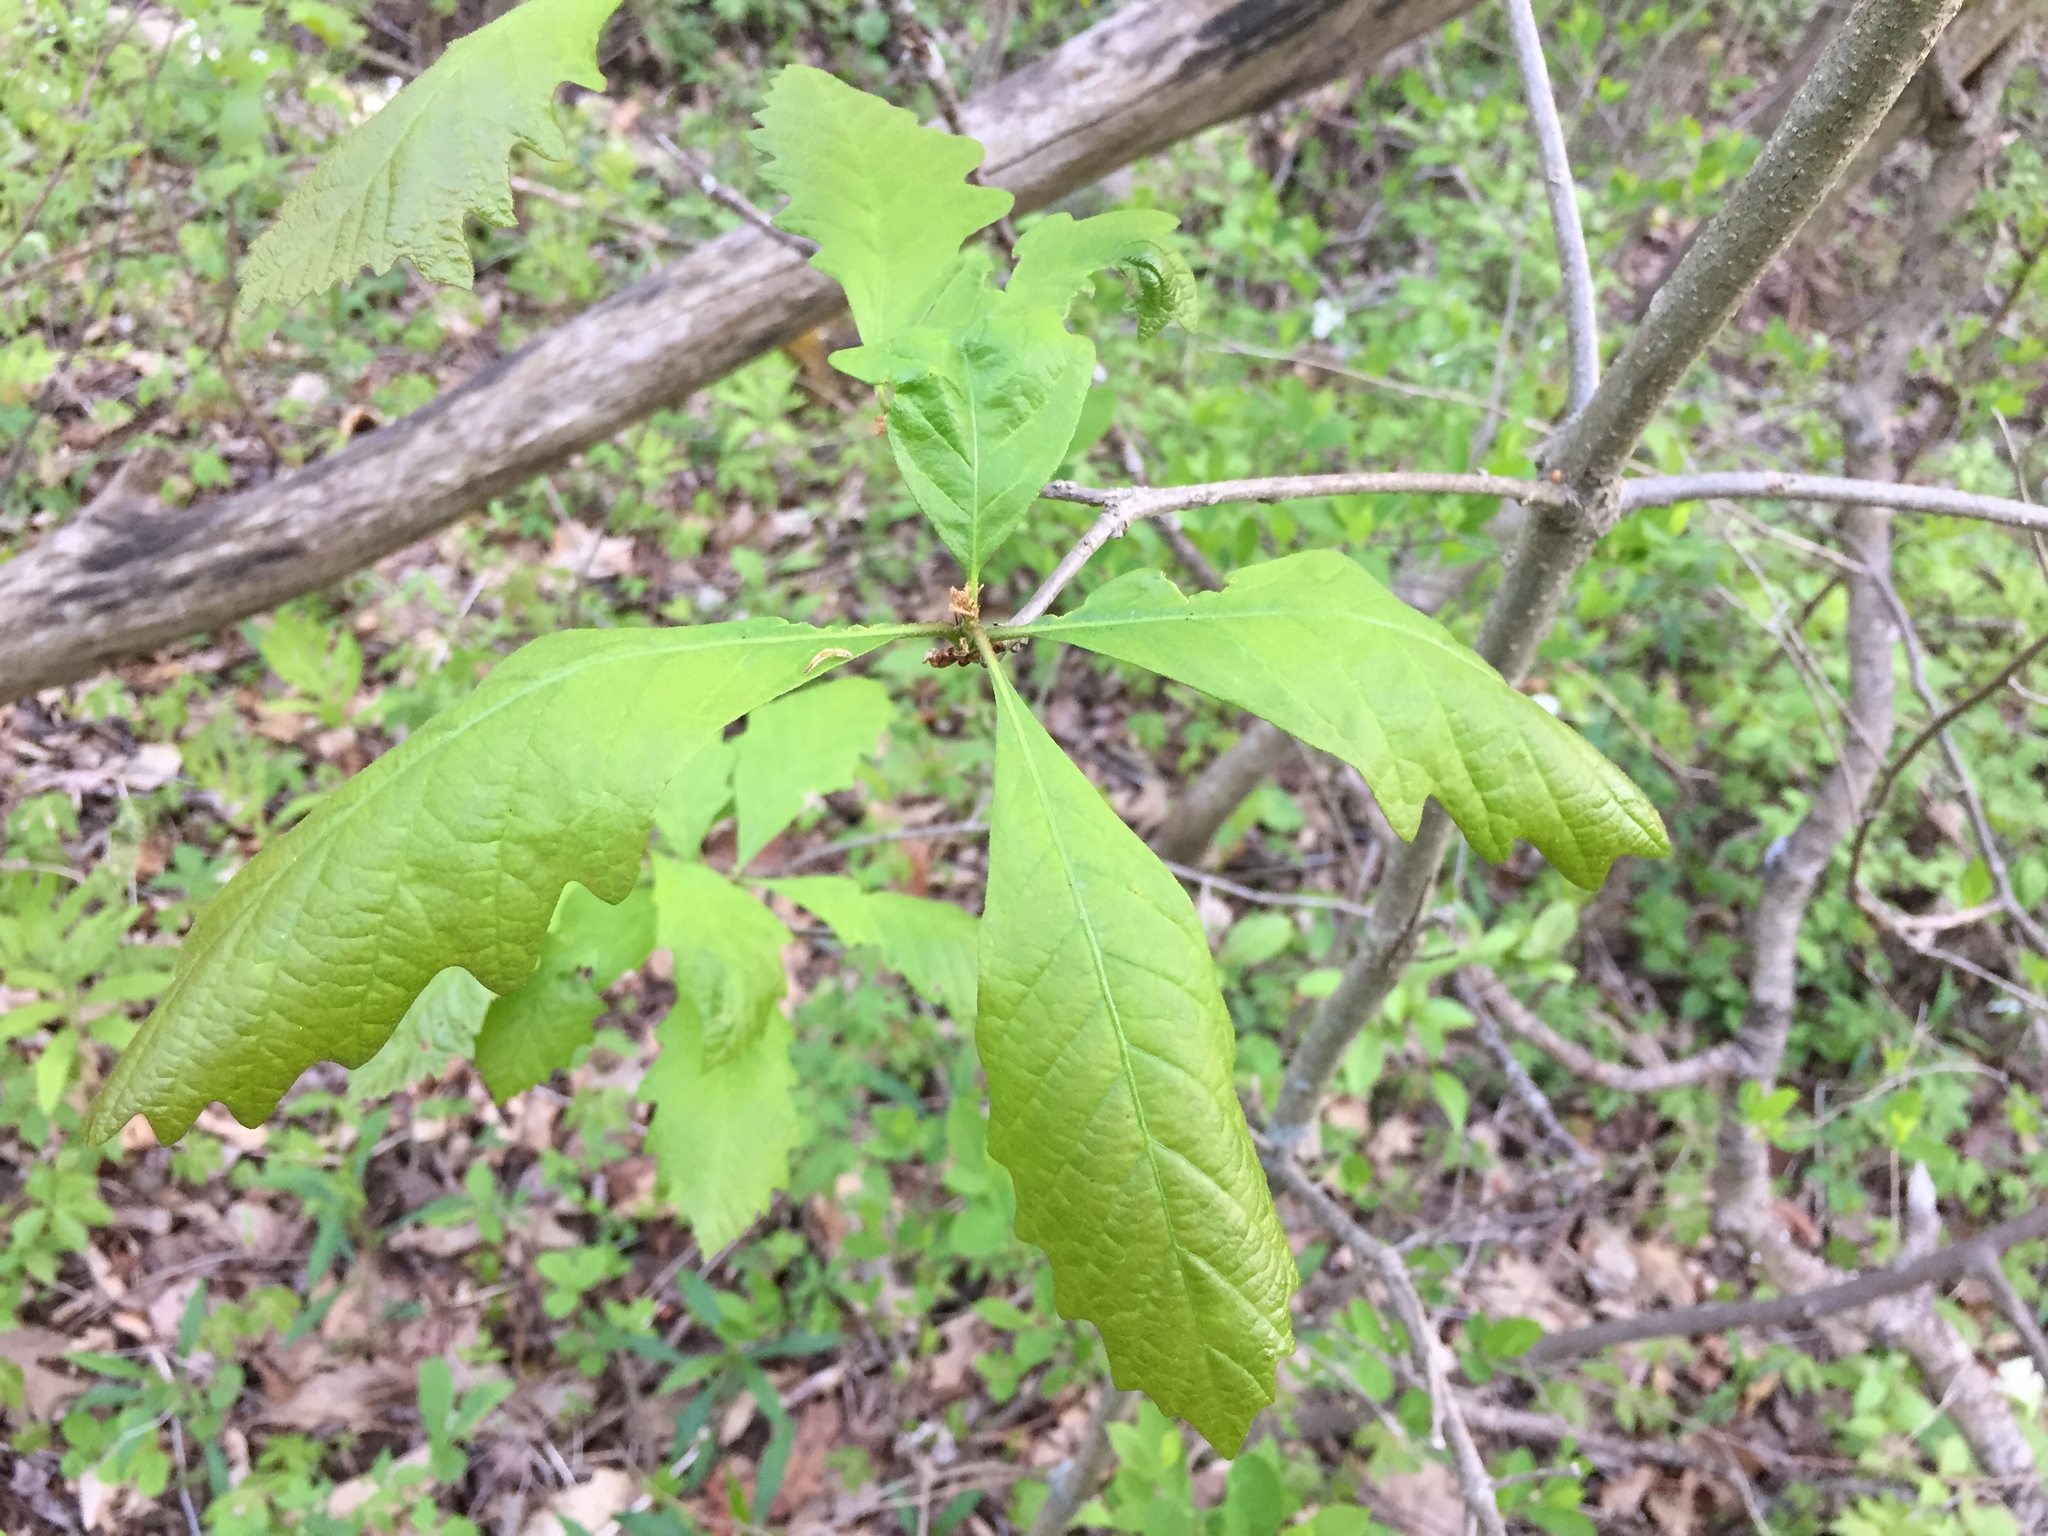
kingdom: Plantae
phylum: Tracheophyta
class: Magnoliopsida
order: Fagales
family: Fagaceae
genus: Quercus
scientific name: Quercus macrocarpa
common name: Bur oak
